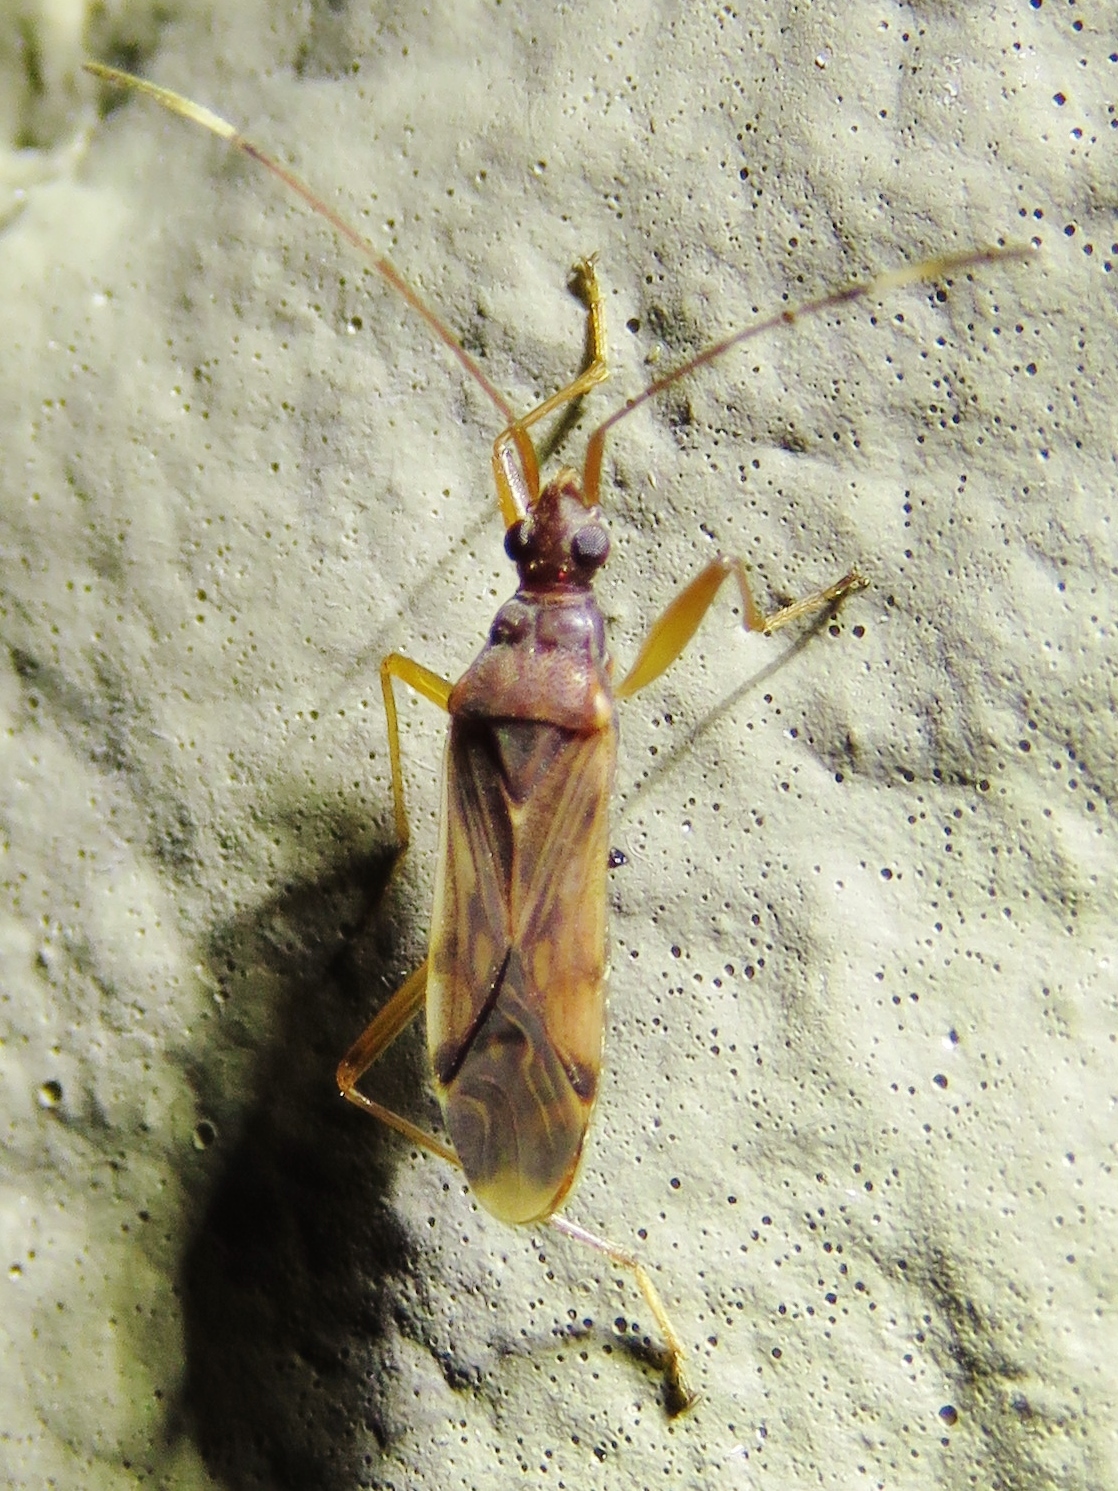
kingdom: Animalia
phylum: Arthropoda
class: Insecta
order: Hemiptera
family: Rhyparochromidae
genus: Ozophora
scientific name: Ozophora depicturata
